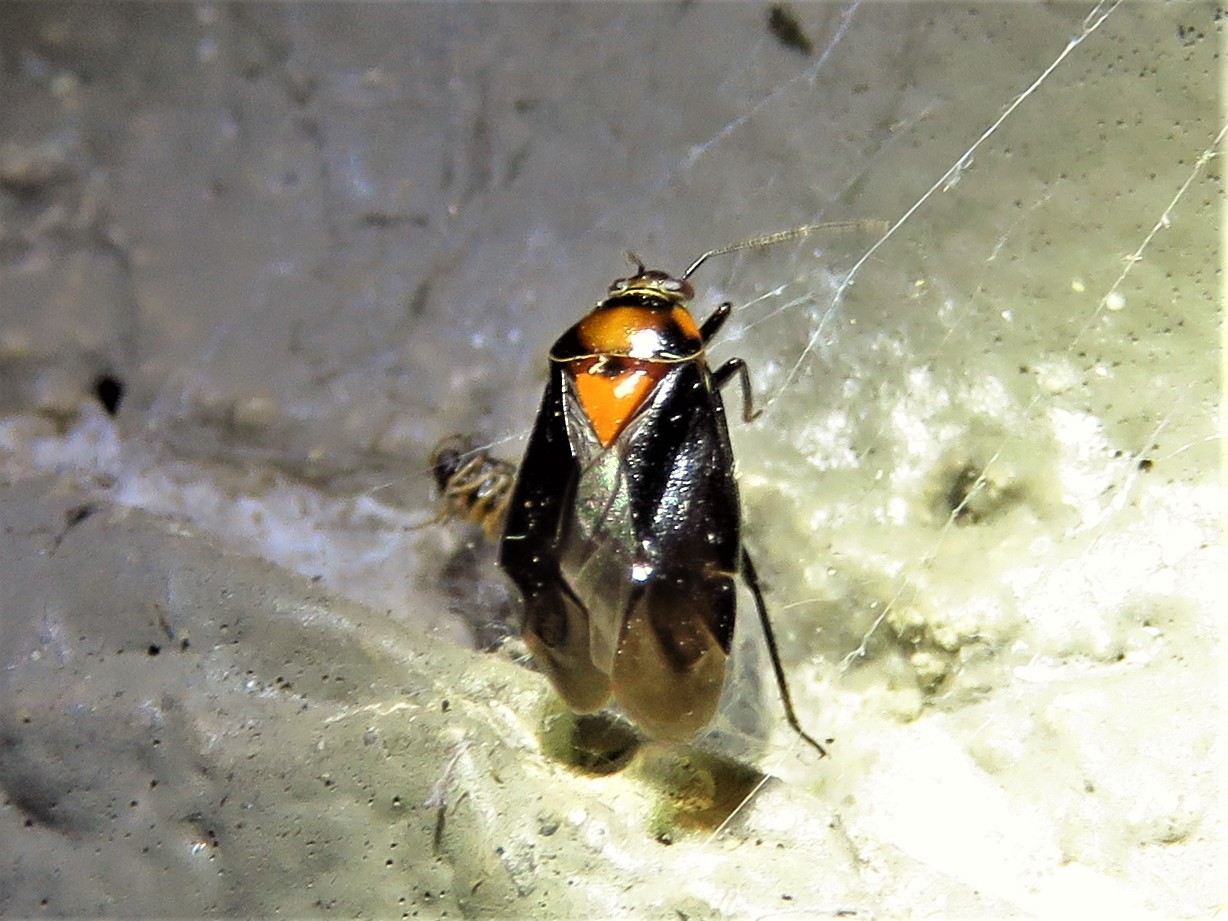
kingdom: Animalia
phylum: Arthropoda
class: Insecta
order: Hemiptera
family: Miridae
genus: Neocapsus
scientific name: Neocapsus cuneatus
